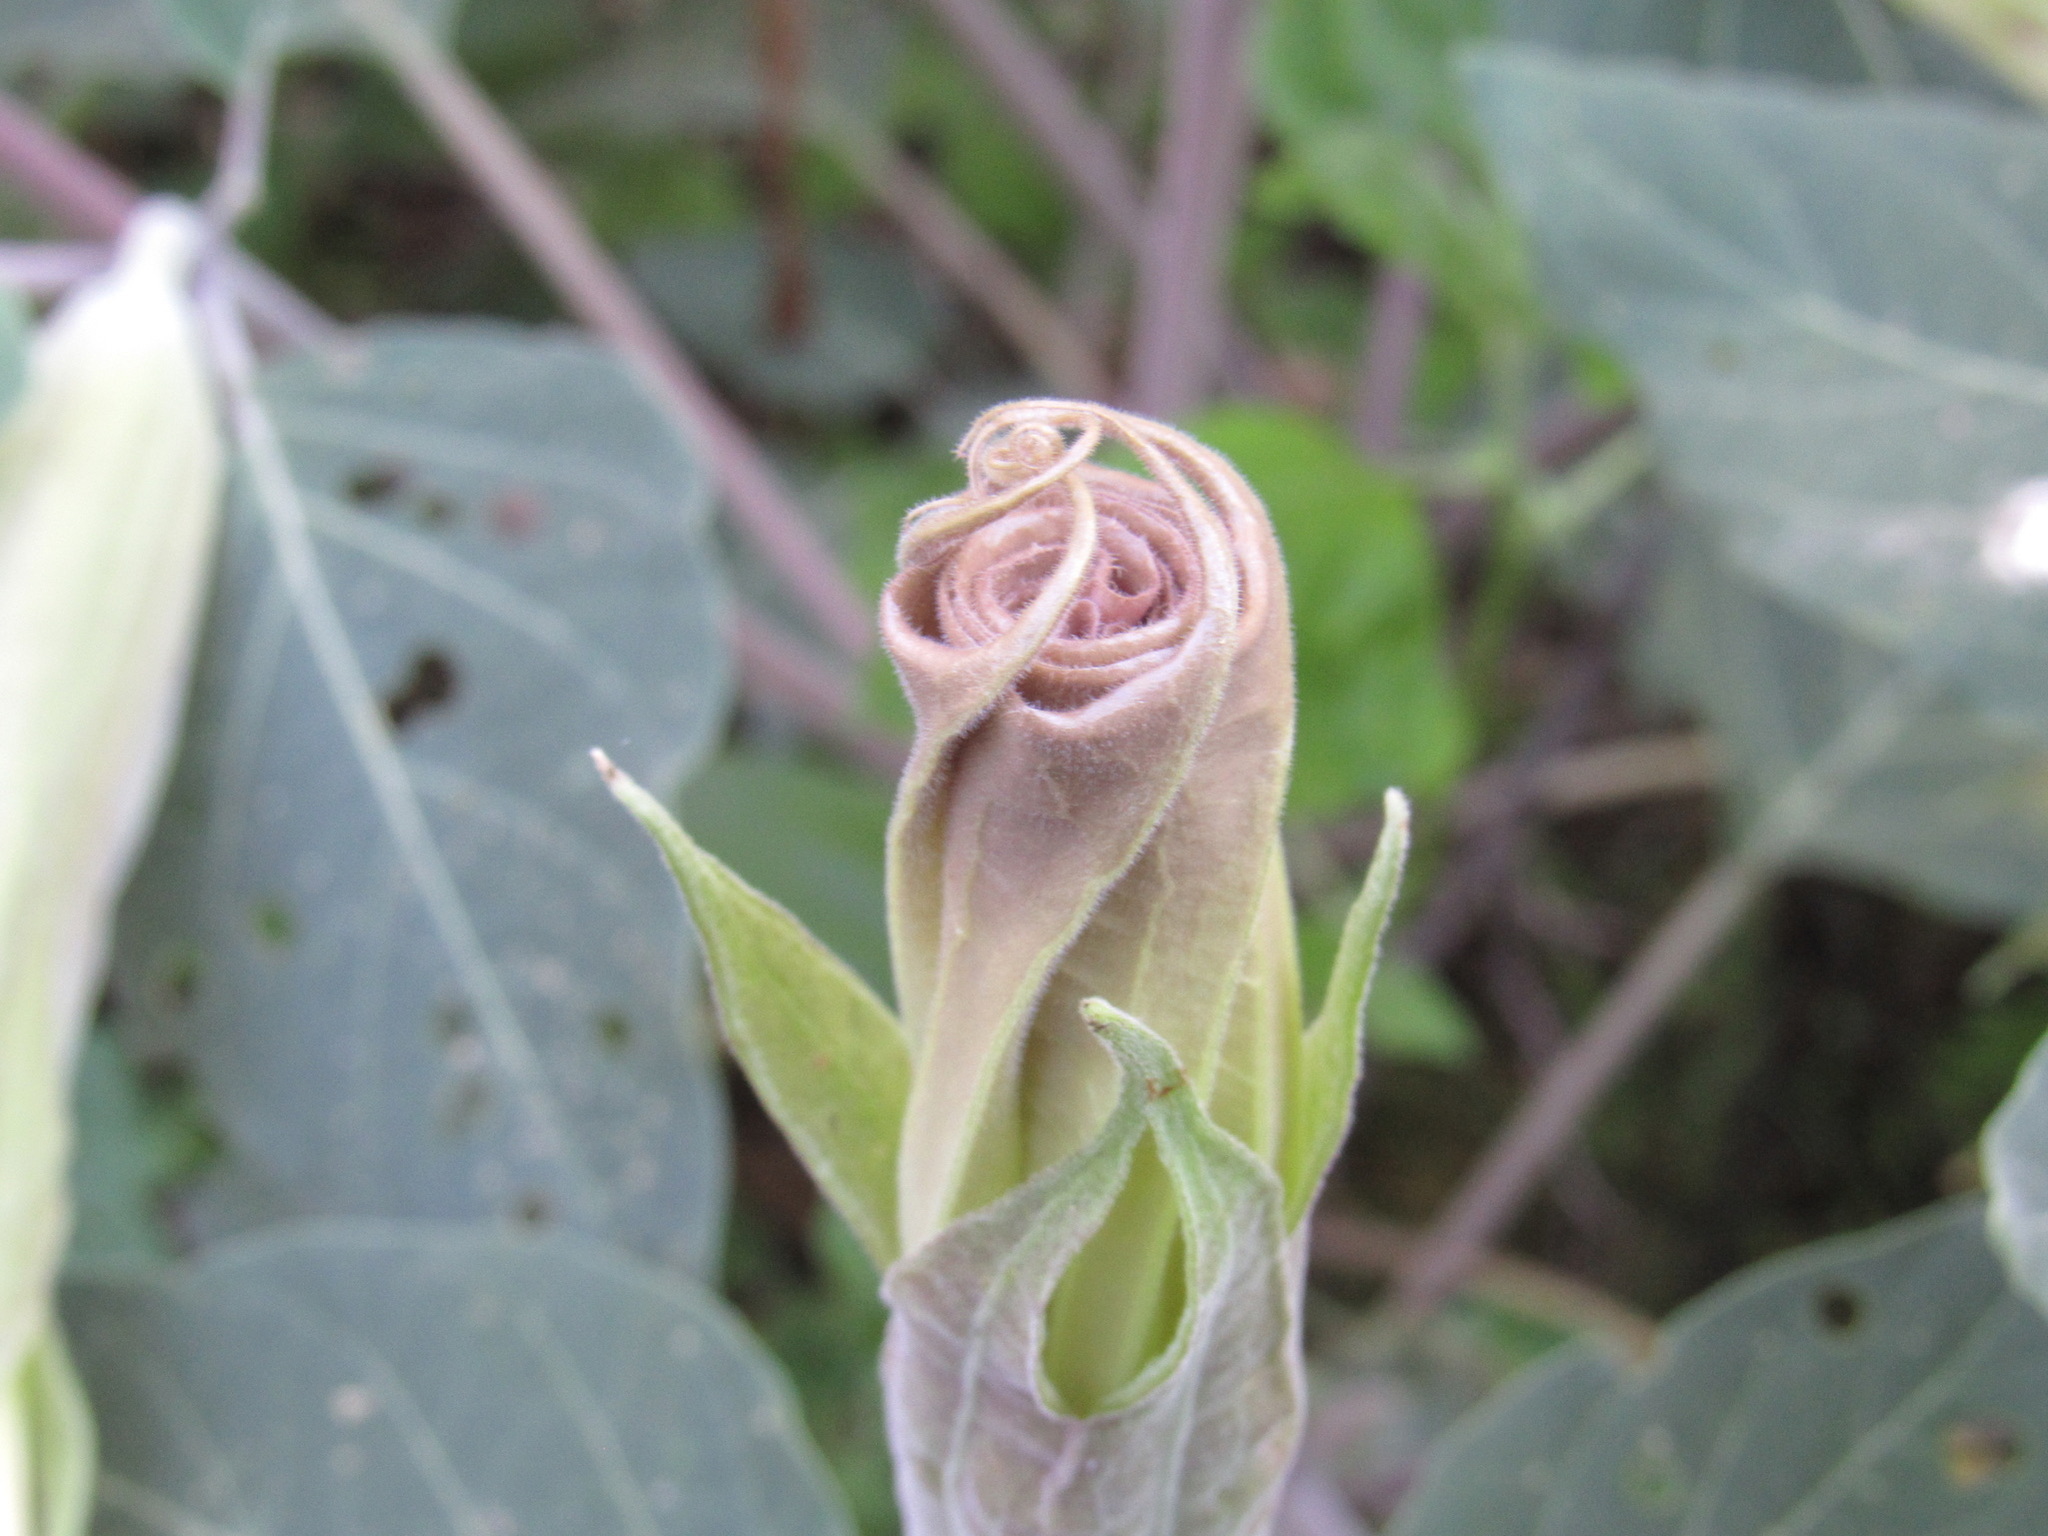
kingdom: Plantae
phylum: Tracheophyta
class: Magnoliopsida
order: Solanales
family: Solanaceae
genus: Datura
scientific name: Datura wrightii
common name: Sacred thorn-apple
